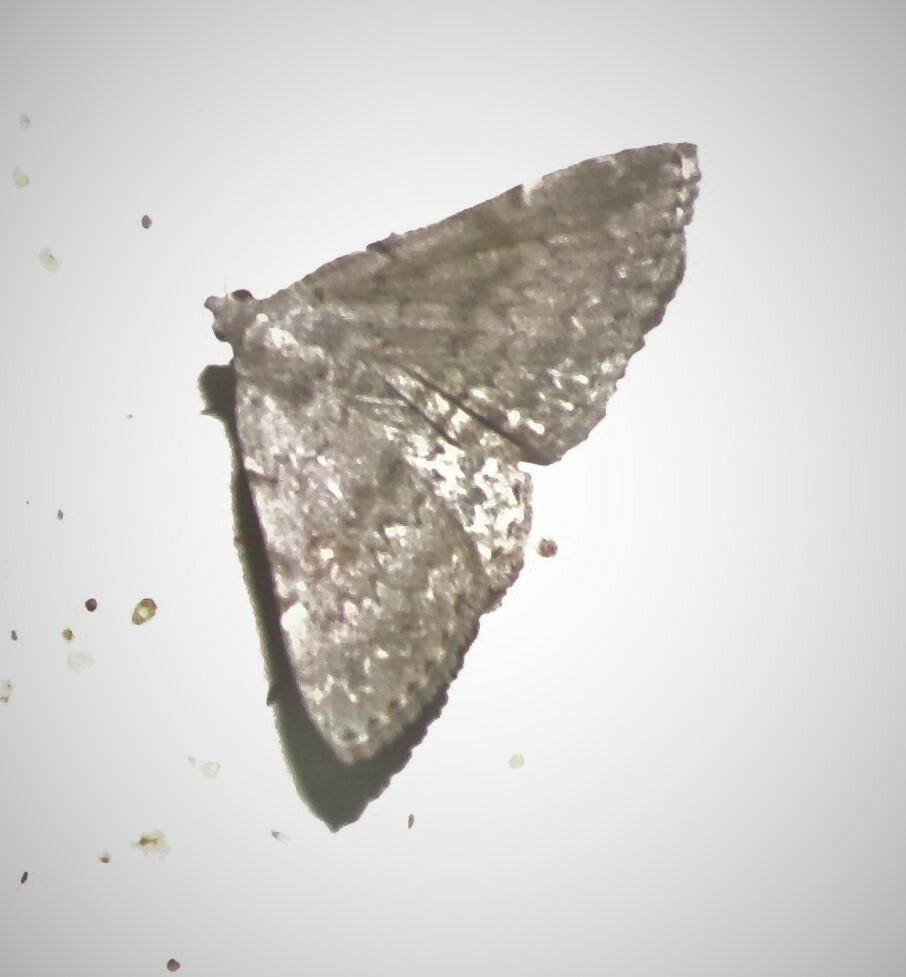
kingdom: Animalia
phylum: Arthropoda
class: Insecta
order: Lepidoptera
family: Erebidae
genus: Idia
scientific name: Idia aemula
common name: Common idia moth
